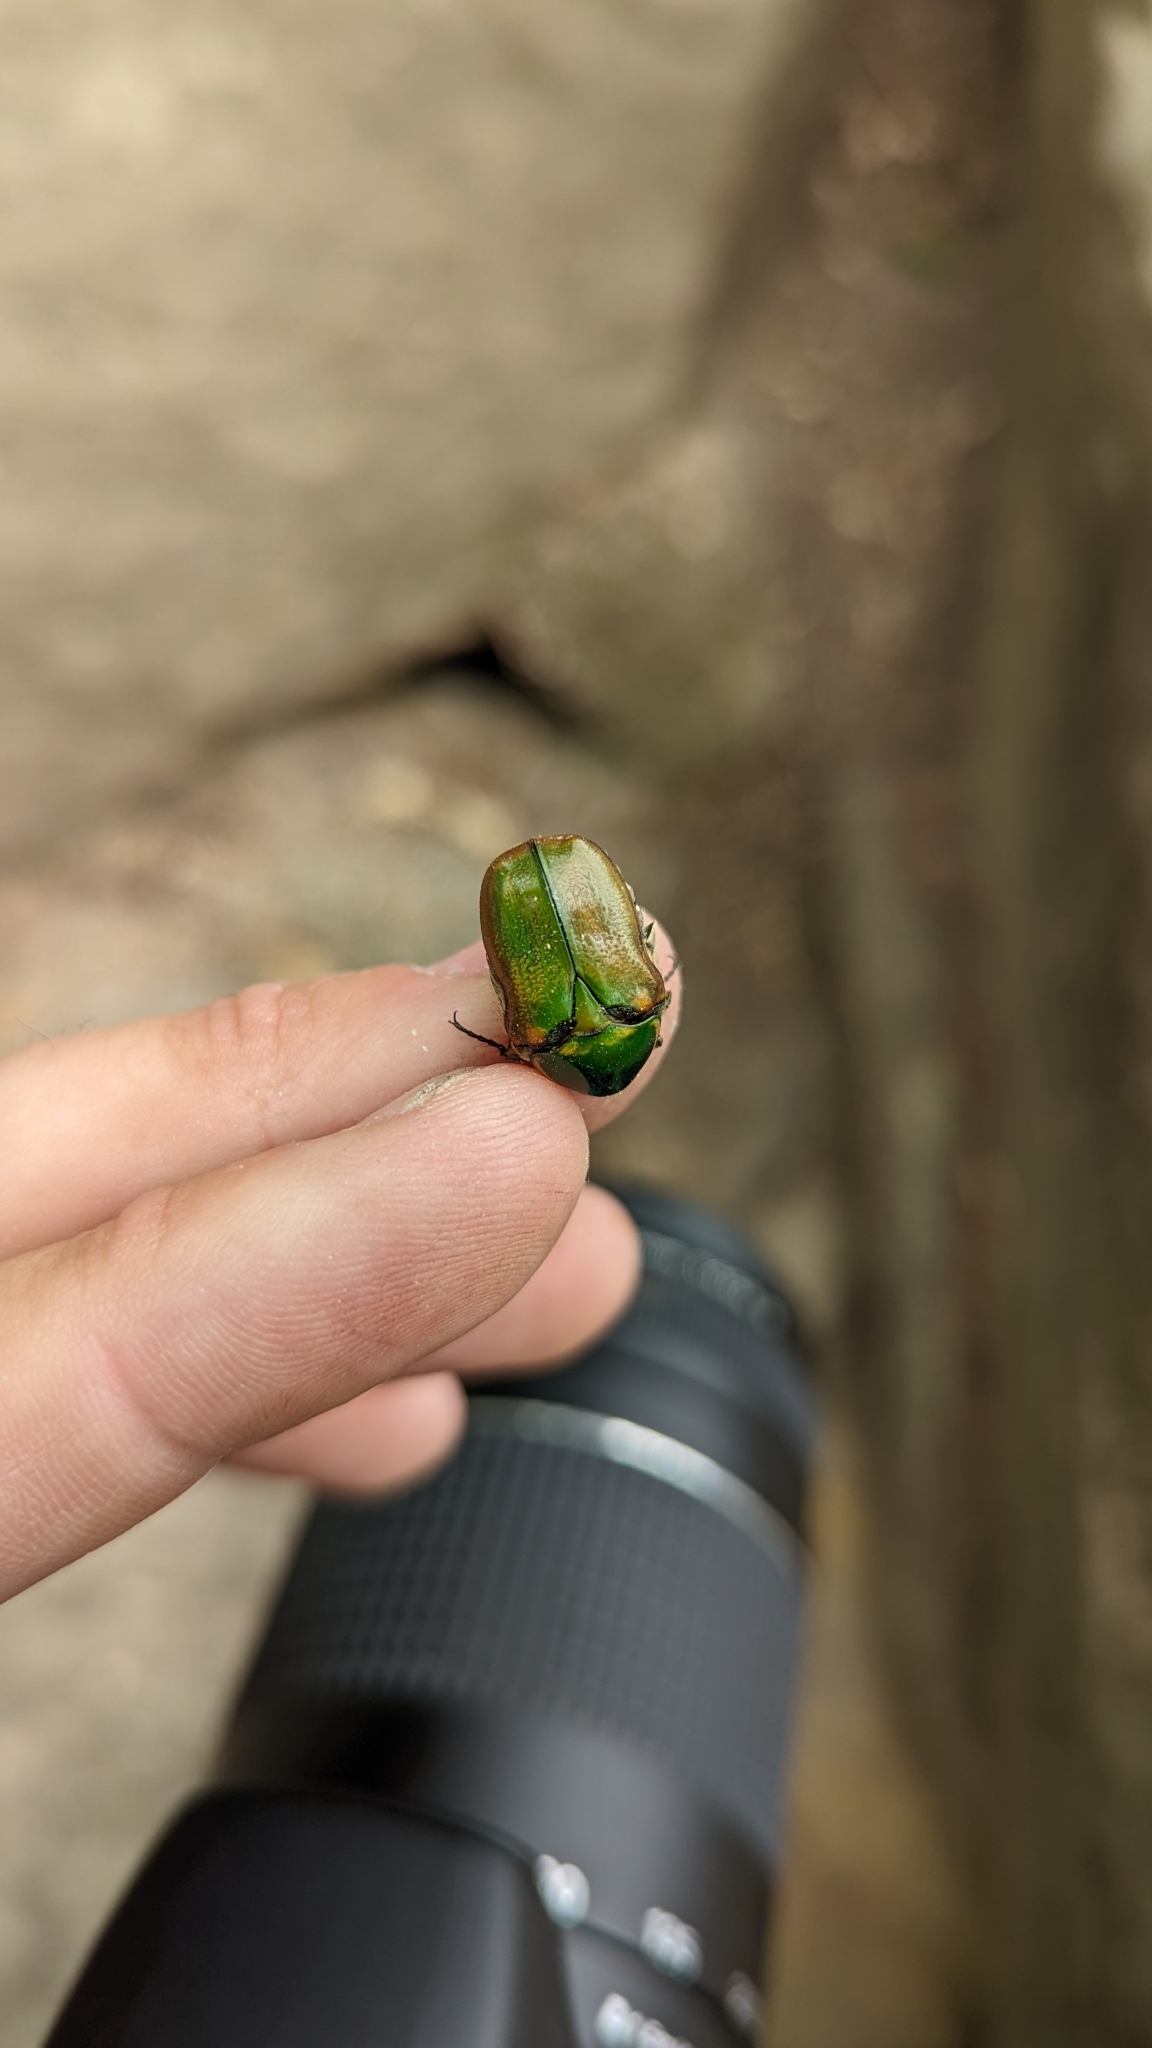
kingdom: Animalia
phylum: Arthropoda
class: Insecta
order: Coleoptera
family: Scarabaeidae
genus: Euphoria
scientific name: Euphoria fulgida
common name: Emerald euphoria
